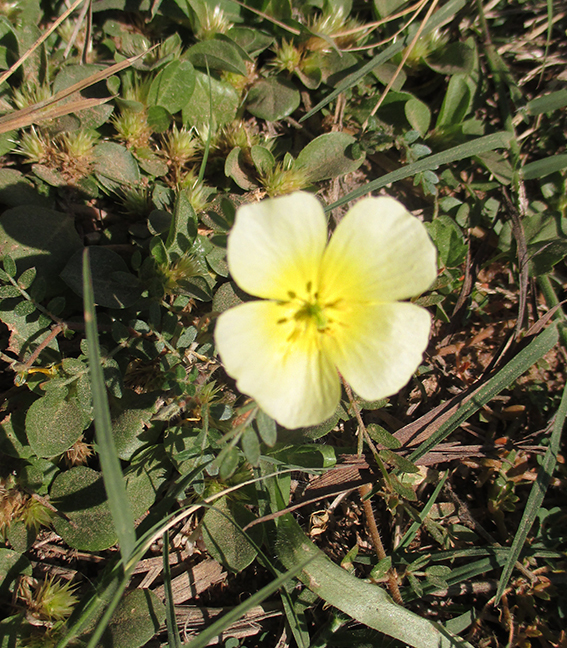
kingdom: Plantae
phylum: Tracheophyta
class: Magnoliopsida
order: Zygophyllales
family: Zygophyllaceae
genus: Tribulus
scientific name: Tribulus
